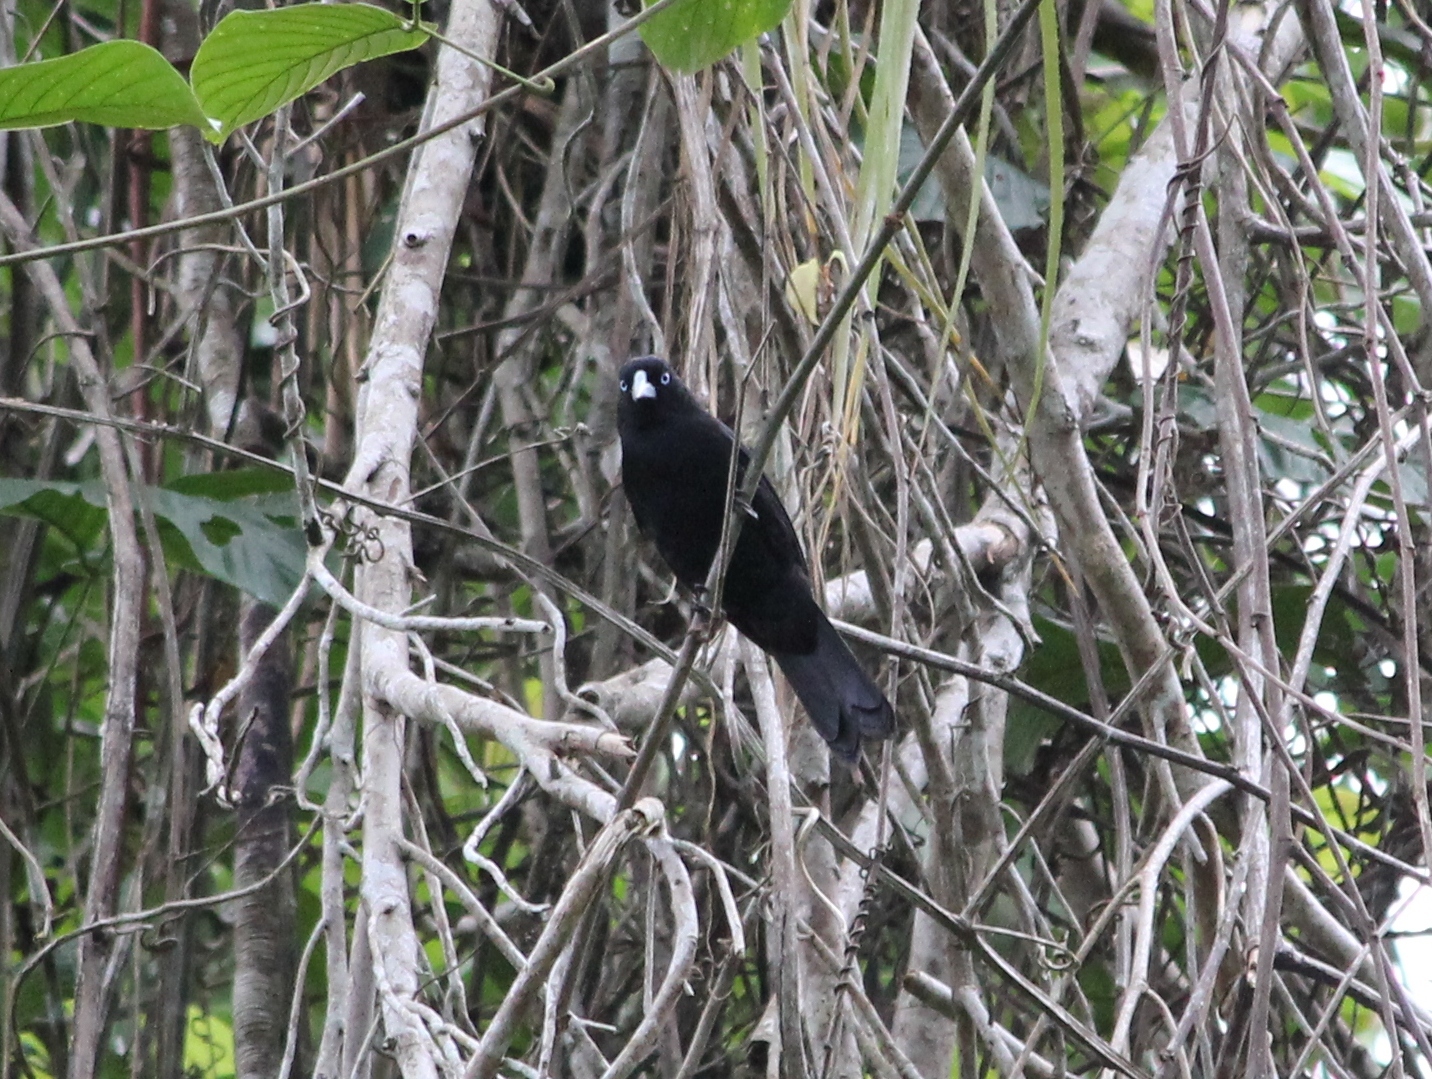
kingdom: Animalia
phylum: Chordata
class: Aves
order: Passeriformes
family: Icteridae
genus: Cacicus
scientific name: Cacicus sclateri
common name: Ecuadorian cacique
